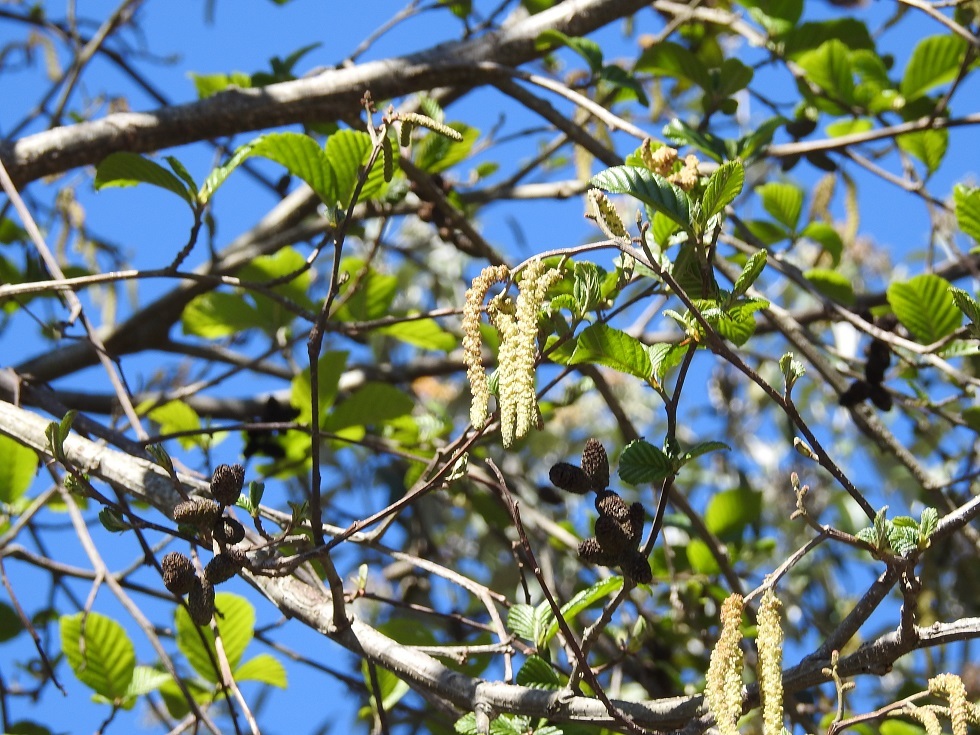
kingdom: Plantae
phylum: Tracheophyta
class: Magnoliopsida
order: Fagales
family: Betulaceae
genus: Alnus
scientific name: Alnus acuminata
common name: Alder
